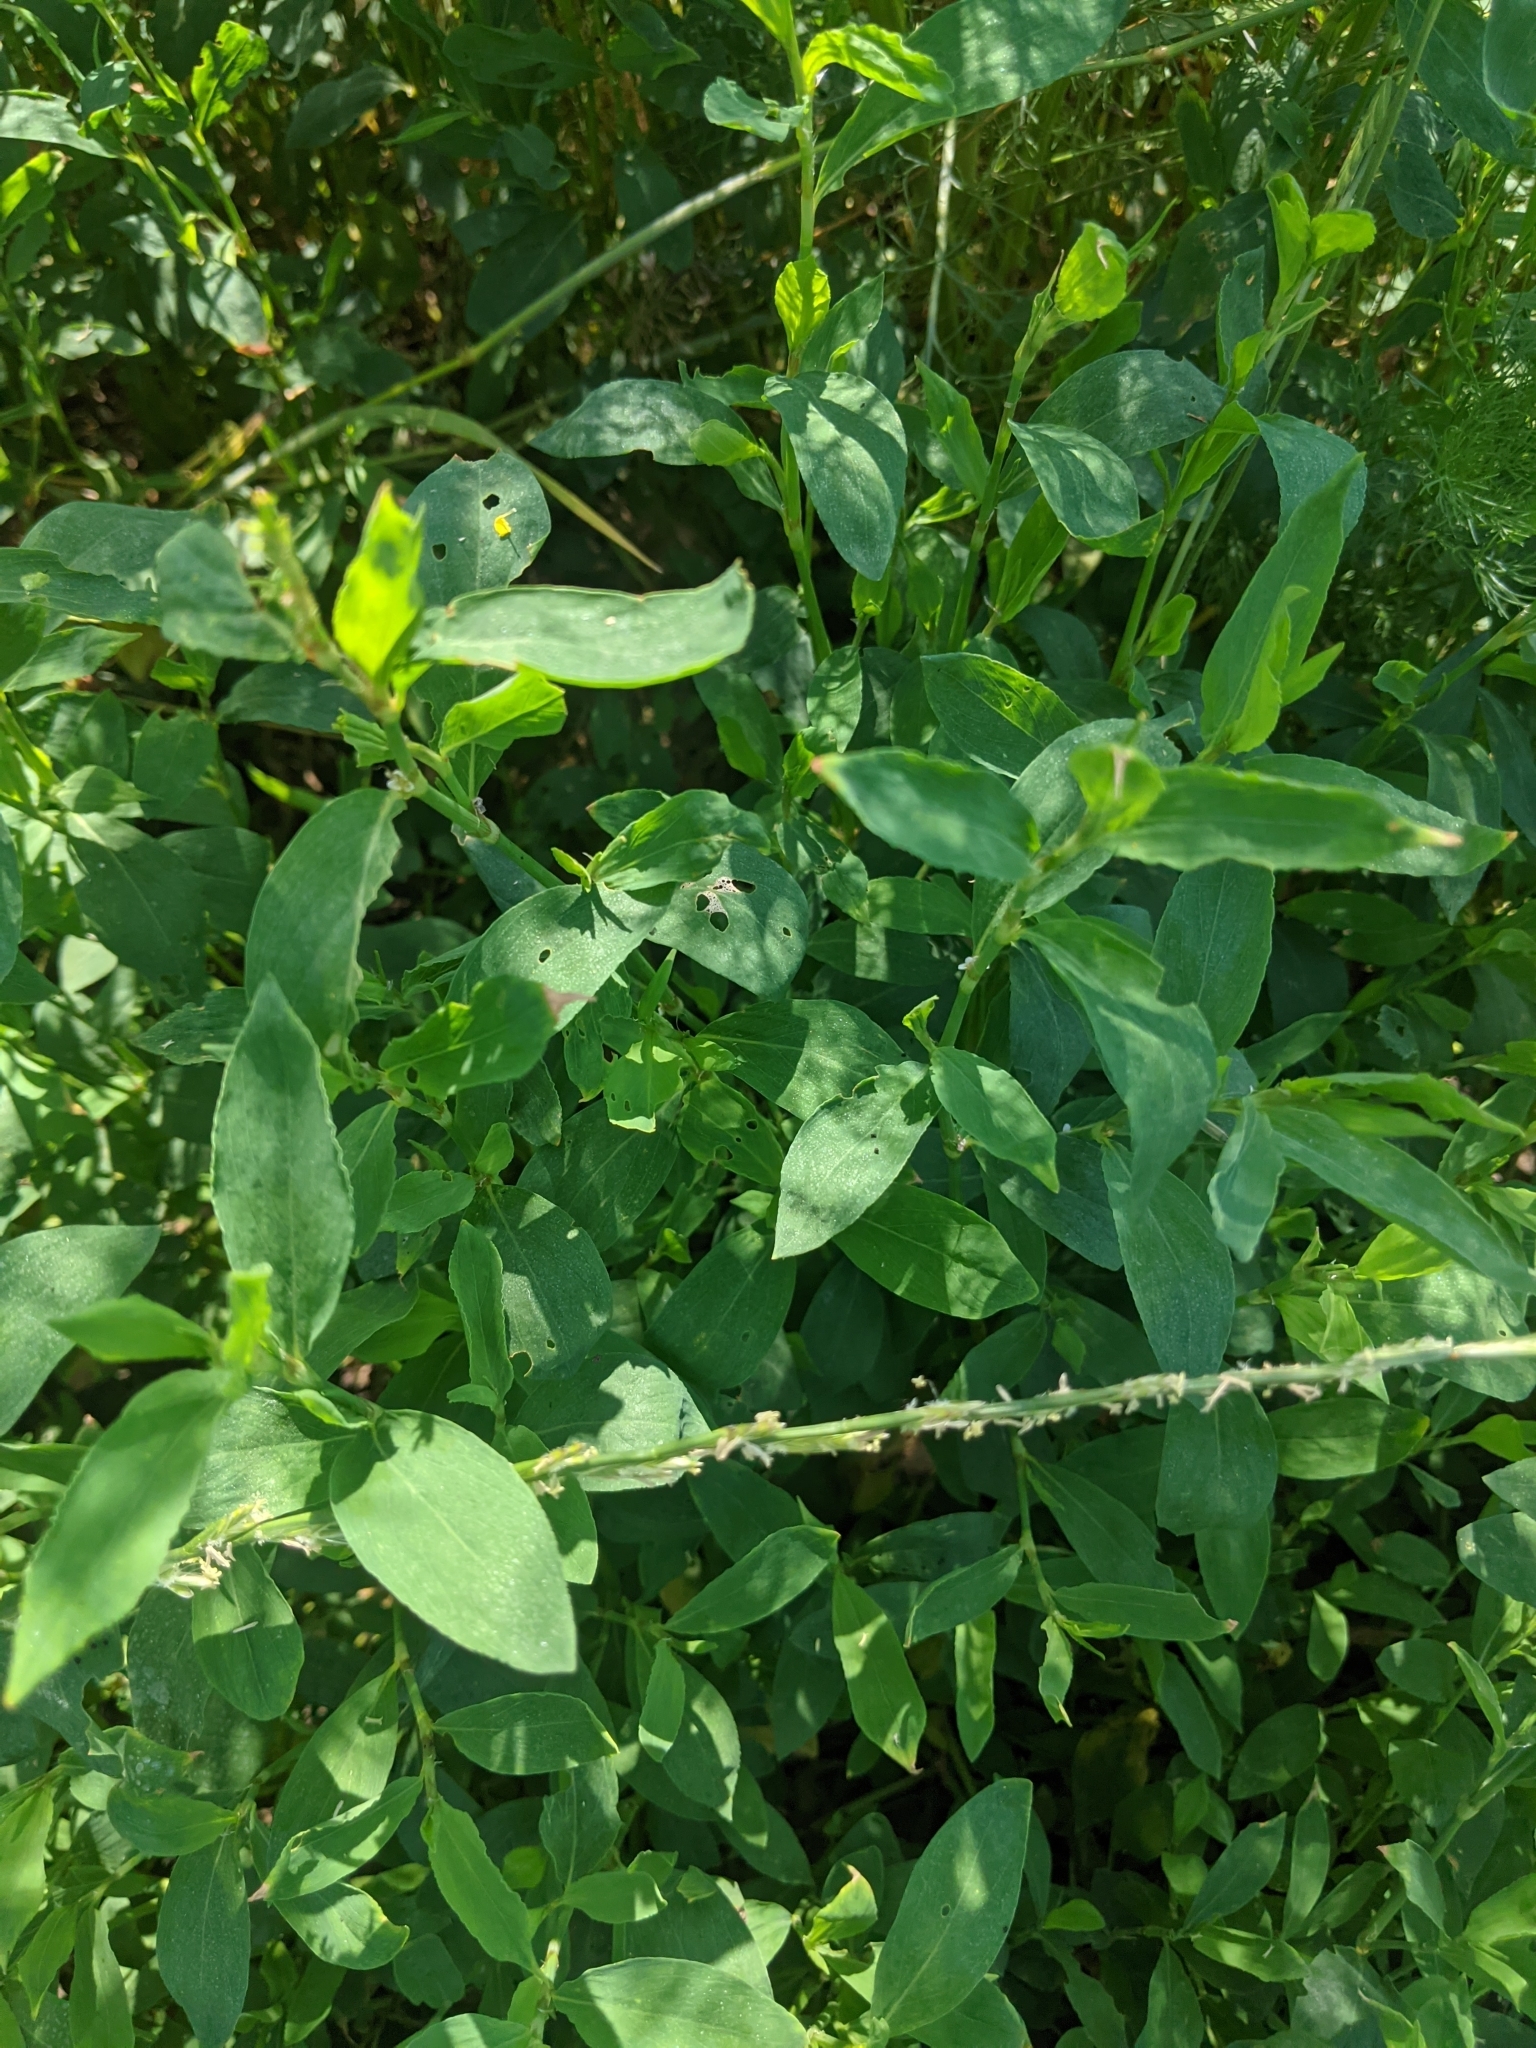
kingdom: Plantae
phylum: Tracheophyta
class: Magnoliopsida
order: Caryophyllales
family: Polygonaceae
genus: Polygonum
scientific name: Polygonum
